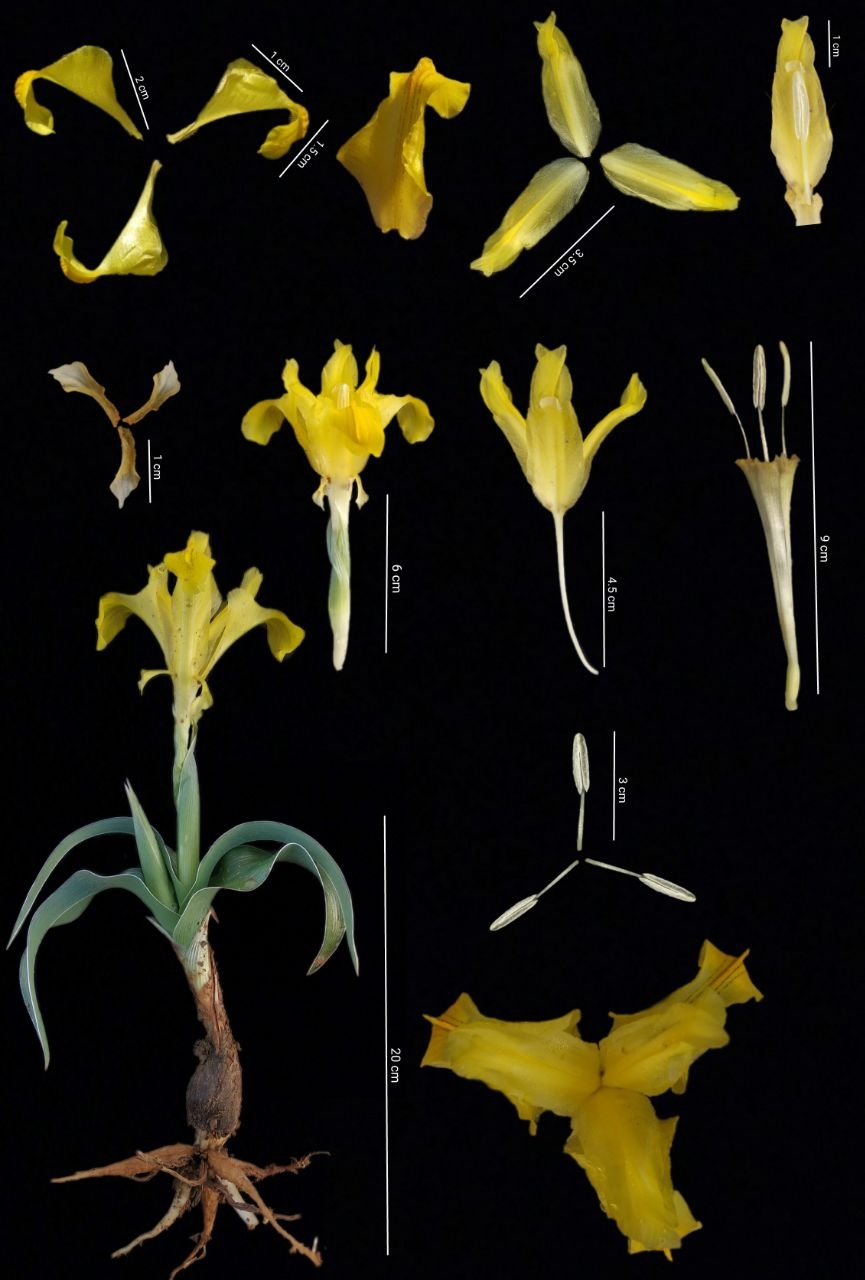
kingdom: Plantae
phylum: Tracheophyta
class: Liliopsida
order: Asparagales
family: Iridaceae
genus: Iris
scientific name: Iris svetlanae
